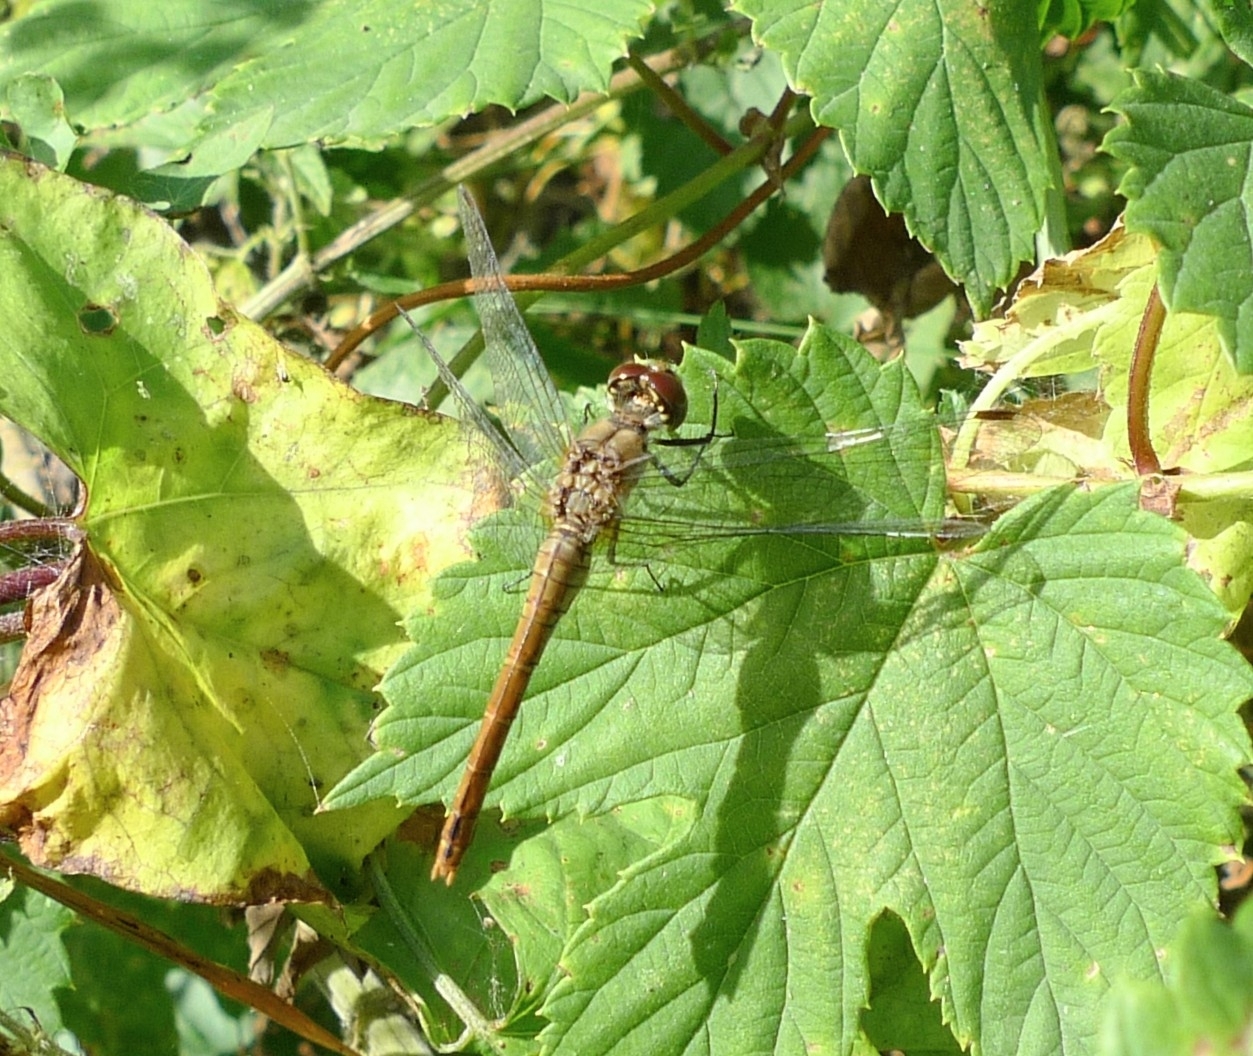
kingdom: Animalia
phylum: Arthropoda
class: Insecta
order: Odonata
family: Libellulidae
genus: Sympetrum
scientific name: Sympetrum sanguineum
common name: Ruddy darter
